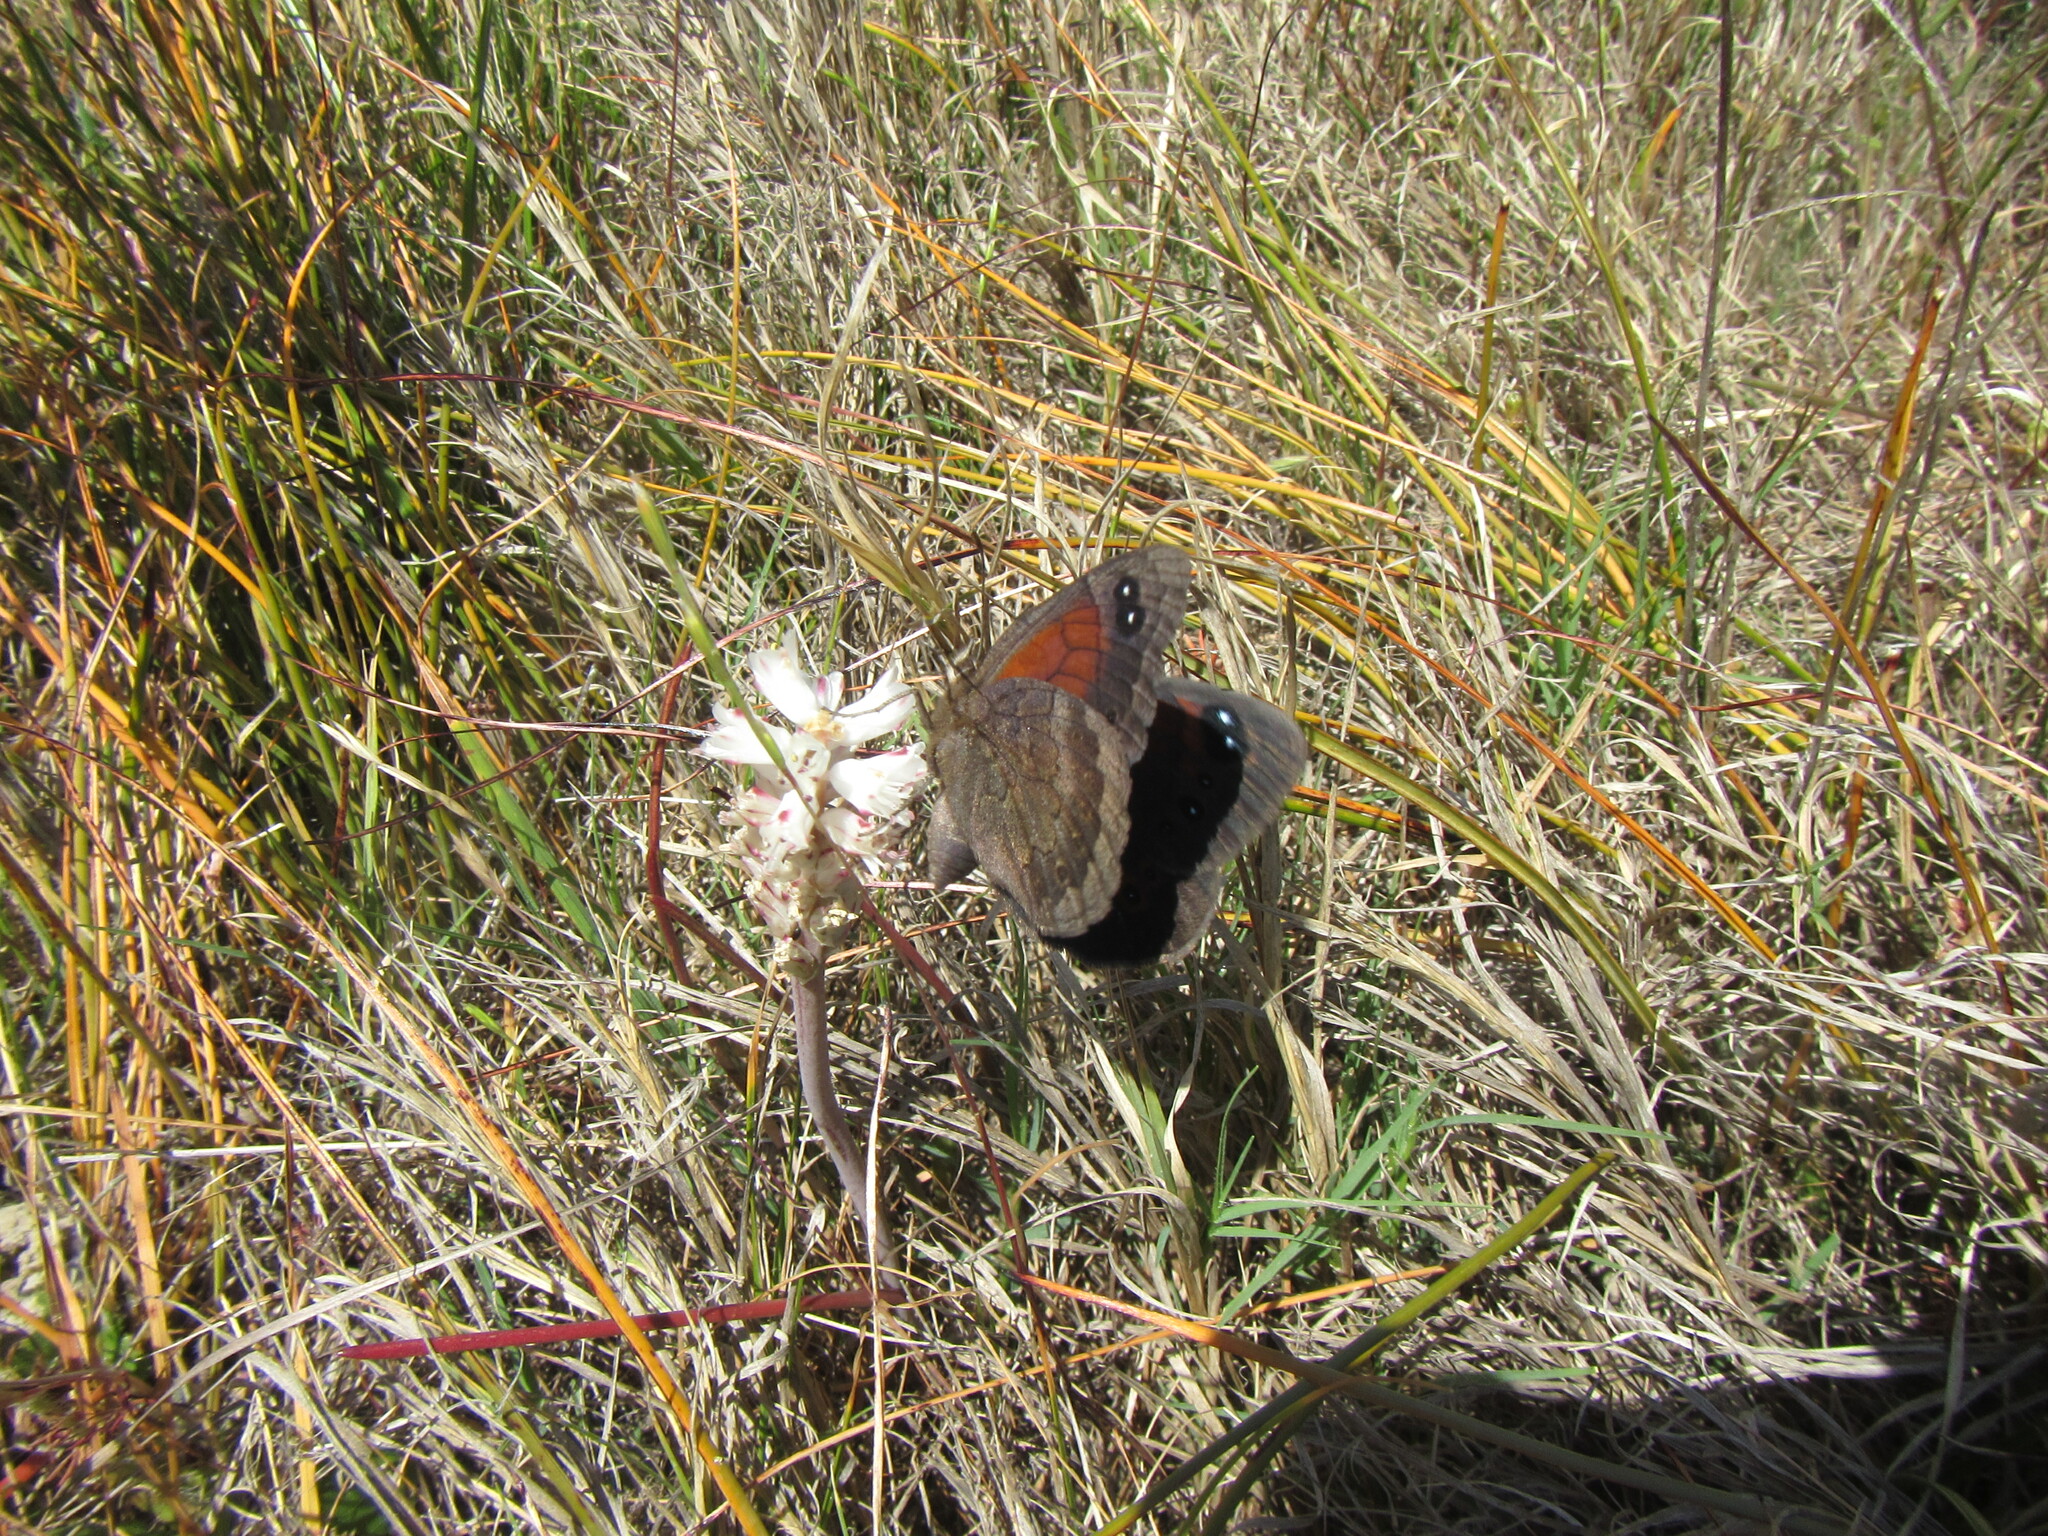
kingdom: Animalia
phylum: Arthropoda
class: Insecta
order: Lepidoptera
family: Nymphalidae
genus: Tarsocera
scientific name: Tarsocera cassus
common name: Spring widow
